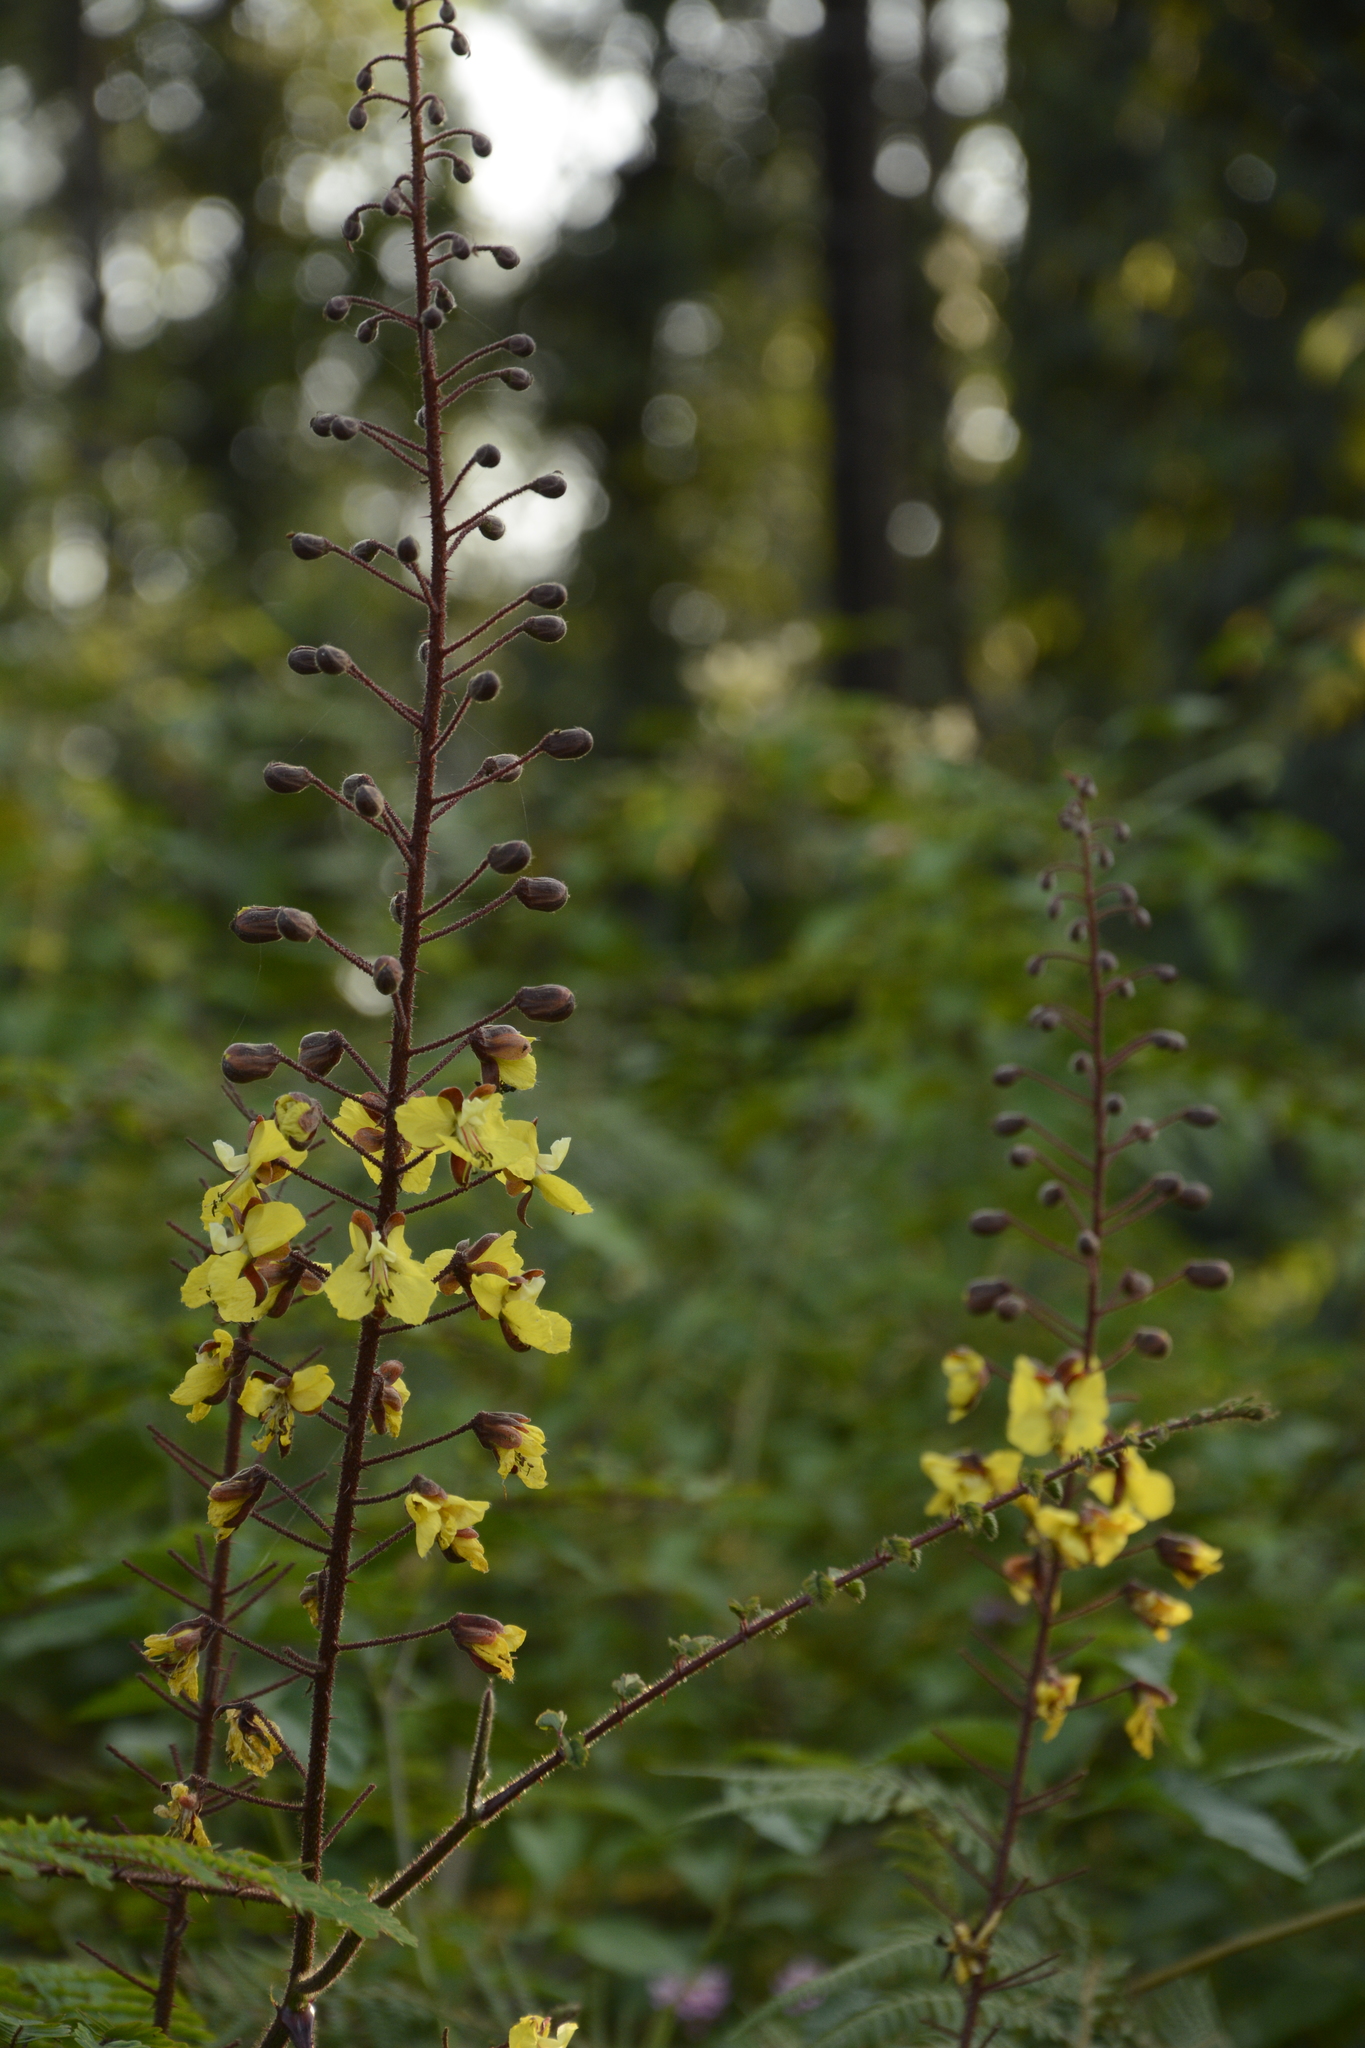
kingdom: Plantae
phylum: Tracheophyta
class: Magnoliopsida
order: Fabales
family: Fabaceae
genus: Hultholia
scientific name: Hultholia mimosoides
